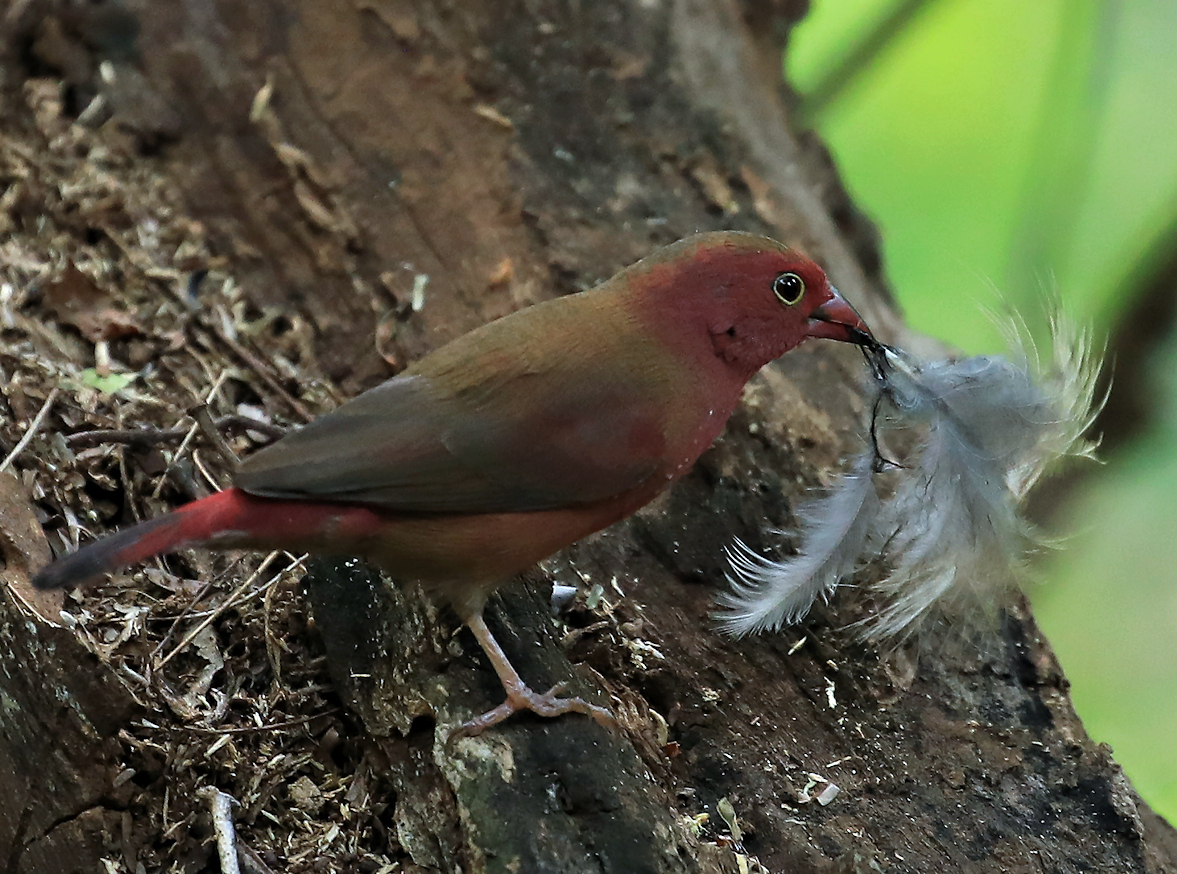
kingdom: Animalia
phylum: Chordata
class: Aves
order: Passeriformes
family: Estrildidae
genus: Lagonosticta
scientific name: Lagonosticta senegala
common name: Red-billed firefinch
